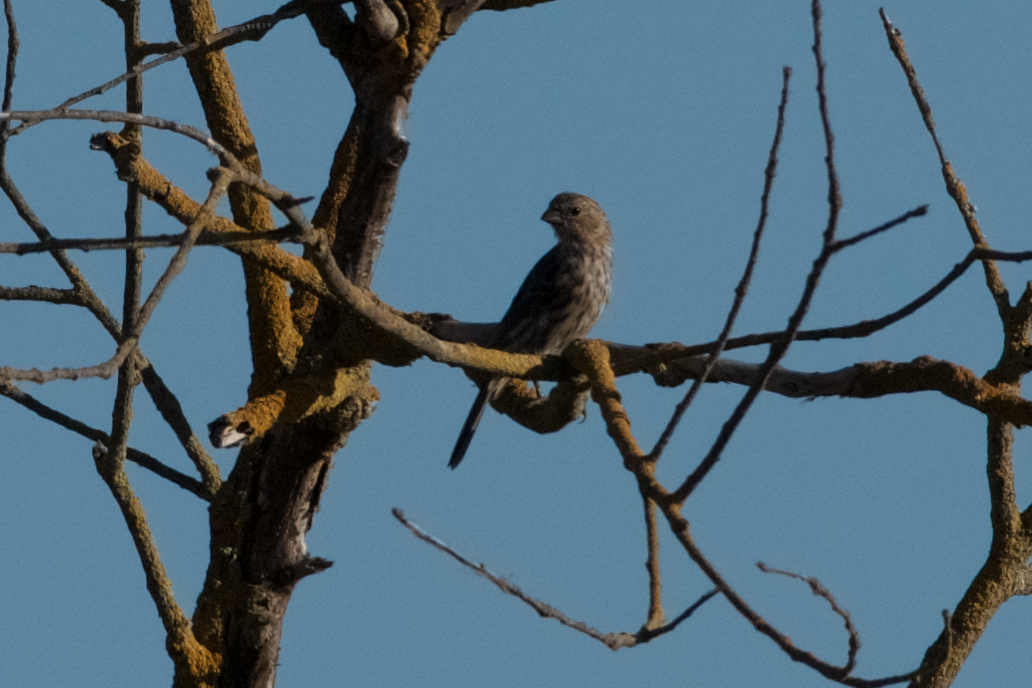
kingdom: Animalia
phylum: Chordata
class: Aves
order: Passeriformes
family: Fringillidae
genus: Haemorhous
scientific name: Haemorhous mexicanus
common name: House finch
